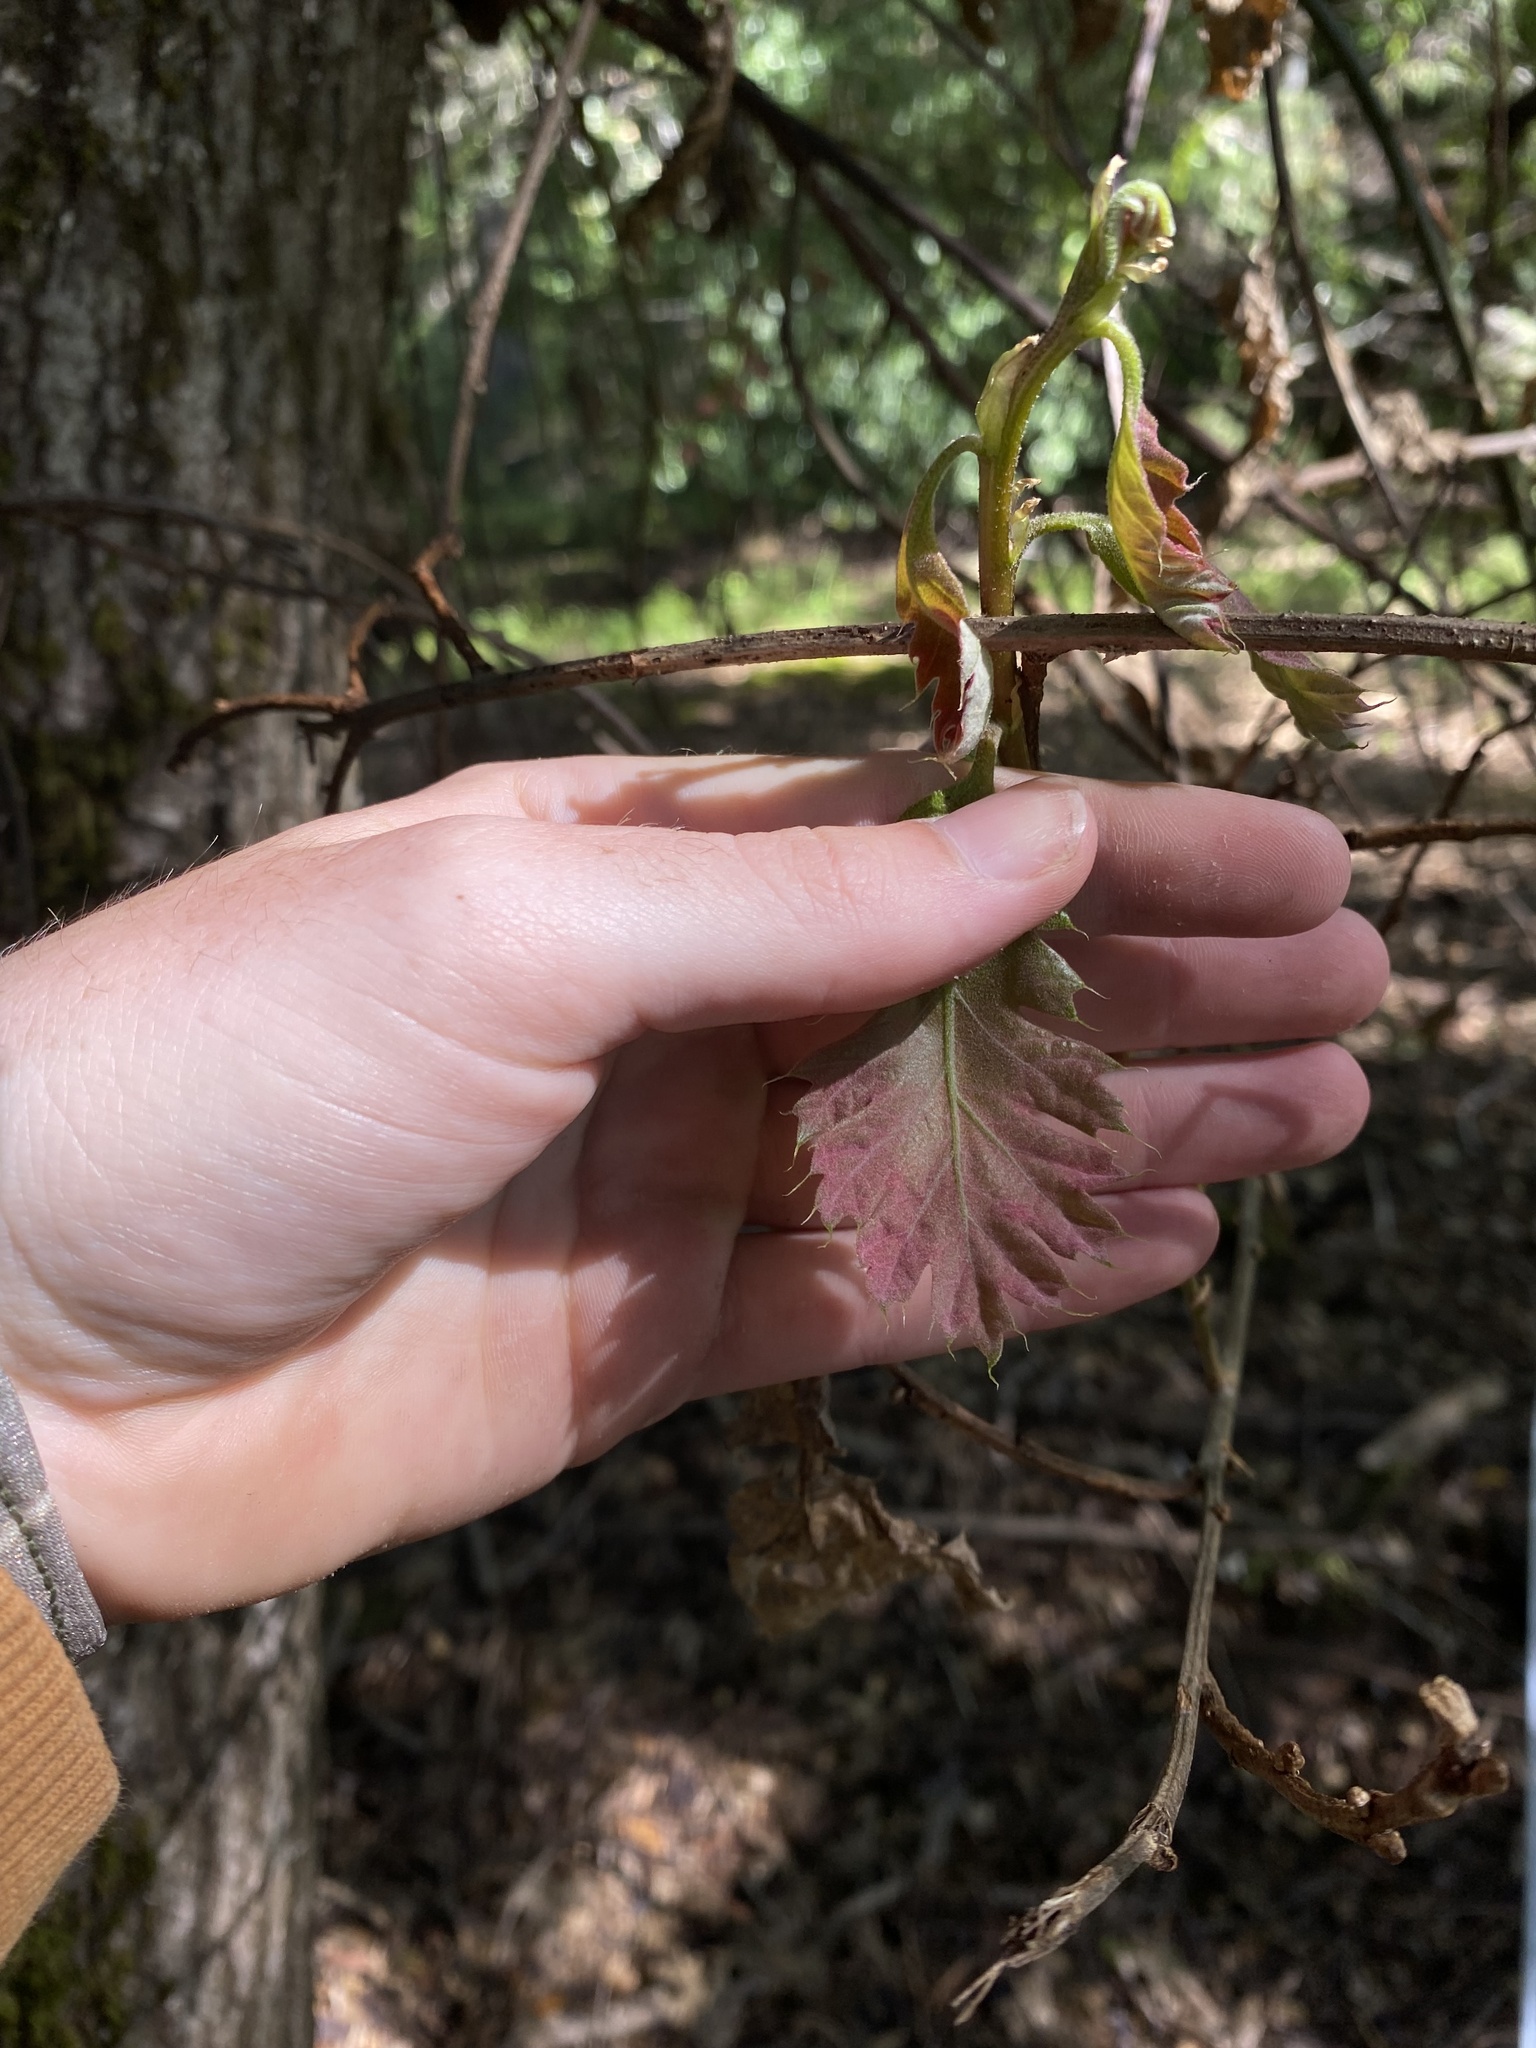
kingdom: Plantae
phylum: Tracheophyta
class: Magnoliopsida
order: Fagales
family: Fagaceae
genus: Quercus
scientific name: Quercus kelloggii
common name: California black oak
